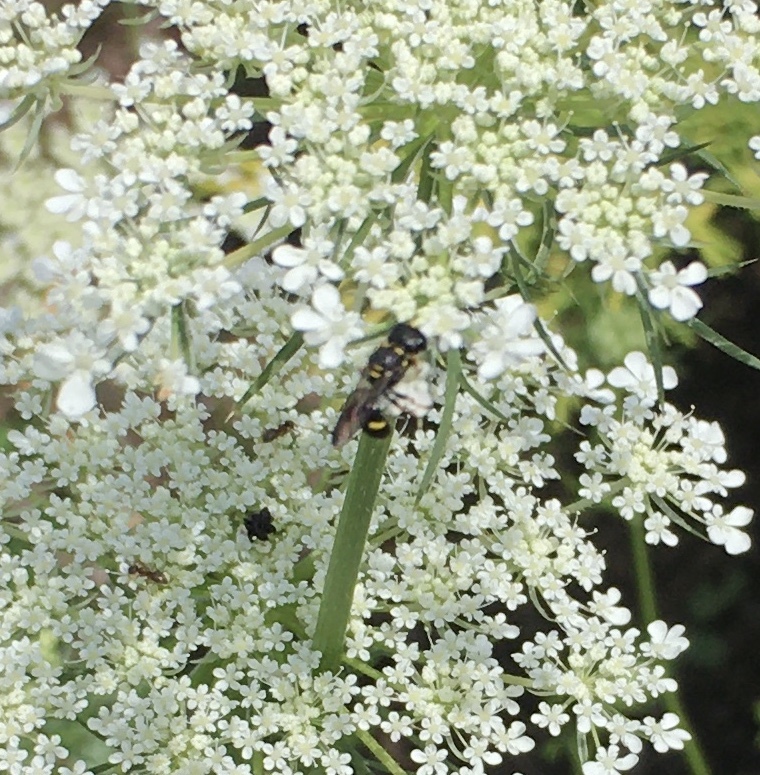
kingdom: Animalia
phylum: Arthropoda
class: Insecta
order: Hymenoptera
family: Crabronidae
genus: Ectemnius
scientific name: Ectemnius stirpicola
